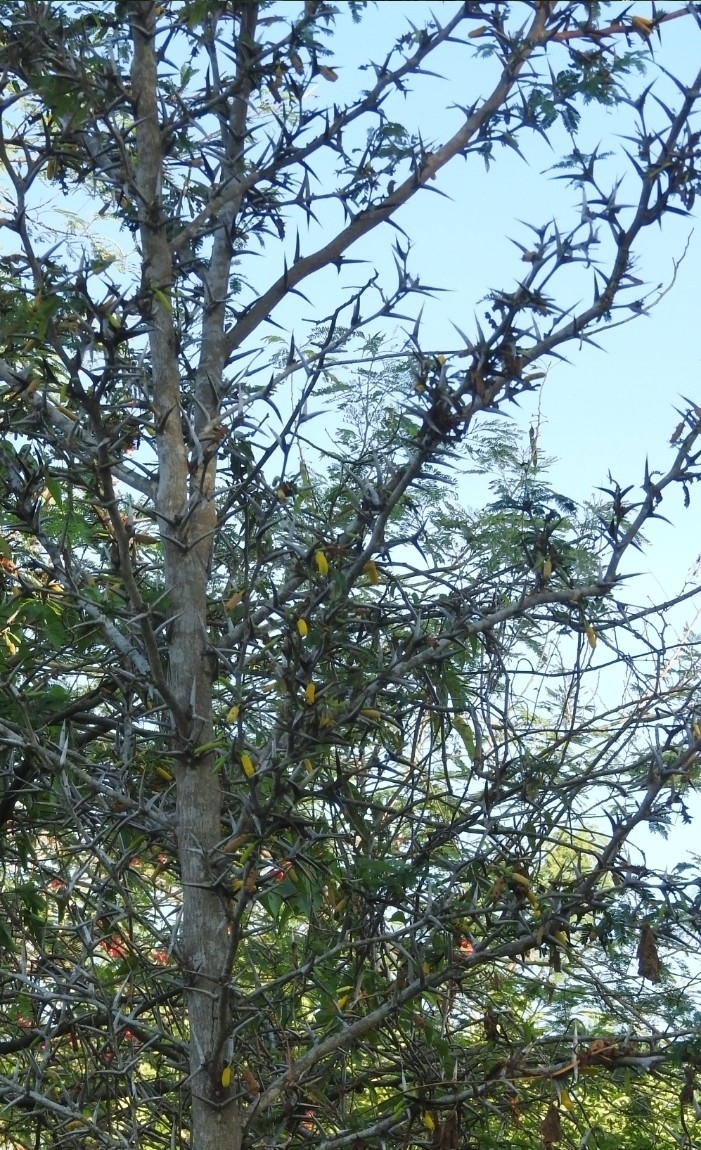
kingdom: Plantae
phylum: Tracheophyta
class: Magnoliopsida
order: Fabales
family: Fabaceae
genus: Vachellia
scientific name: Vachellia cornigera
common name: Bullhorn wattle
